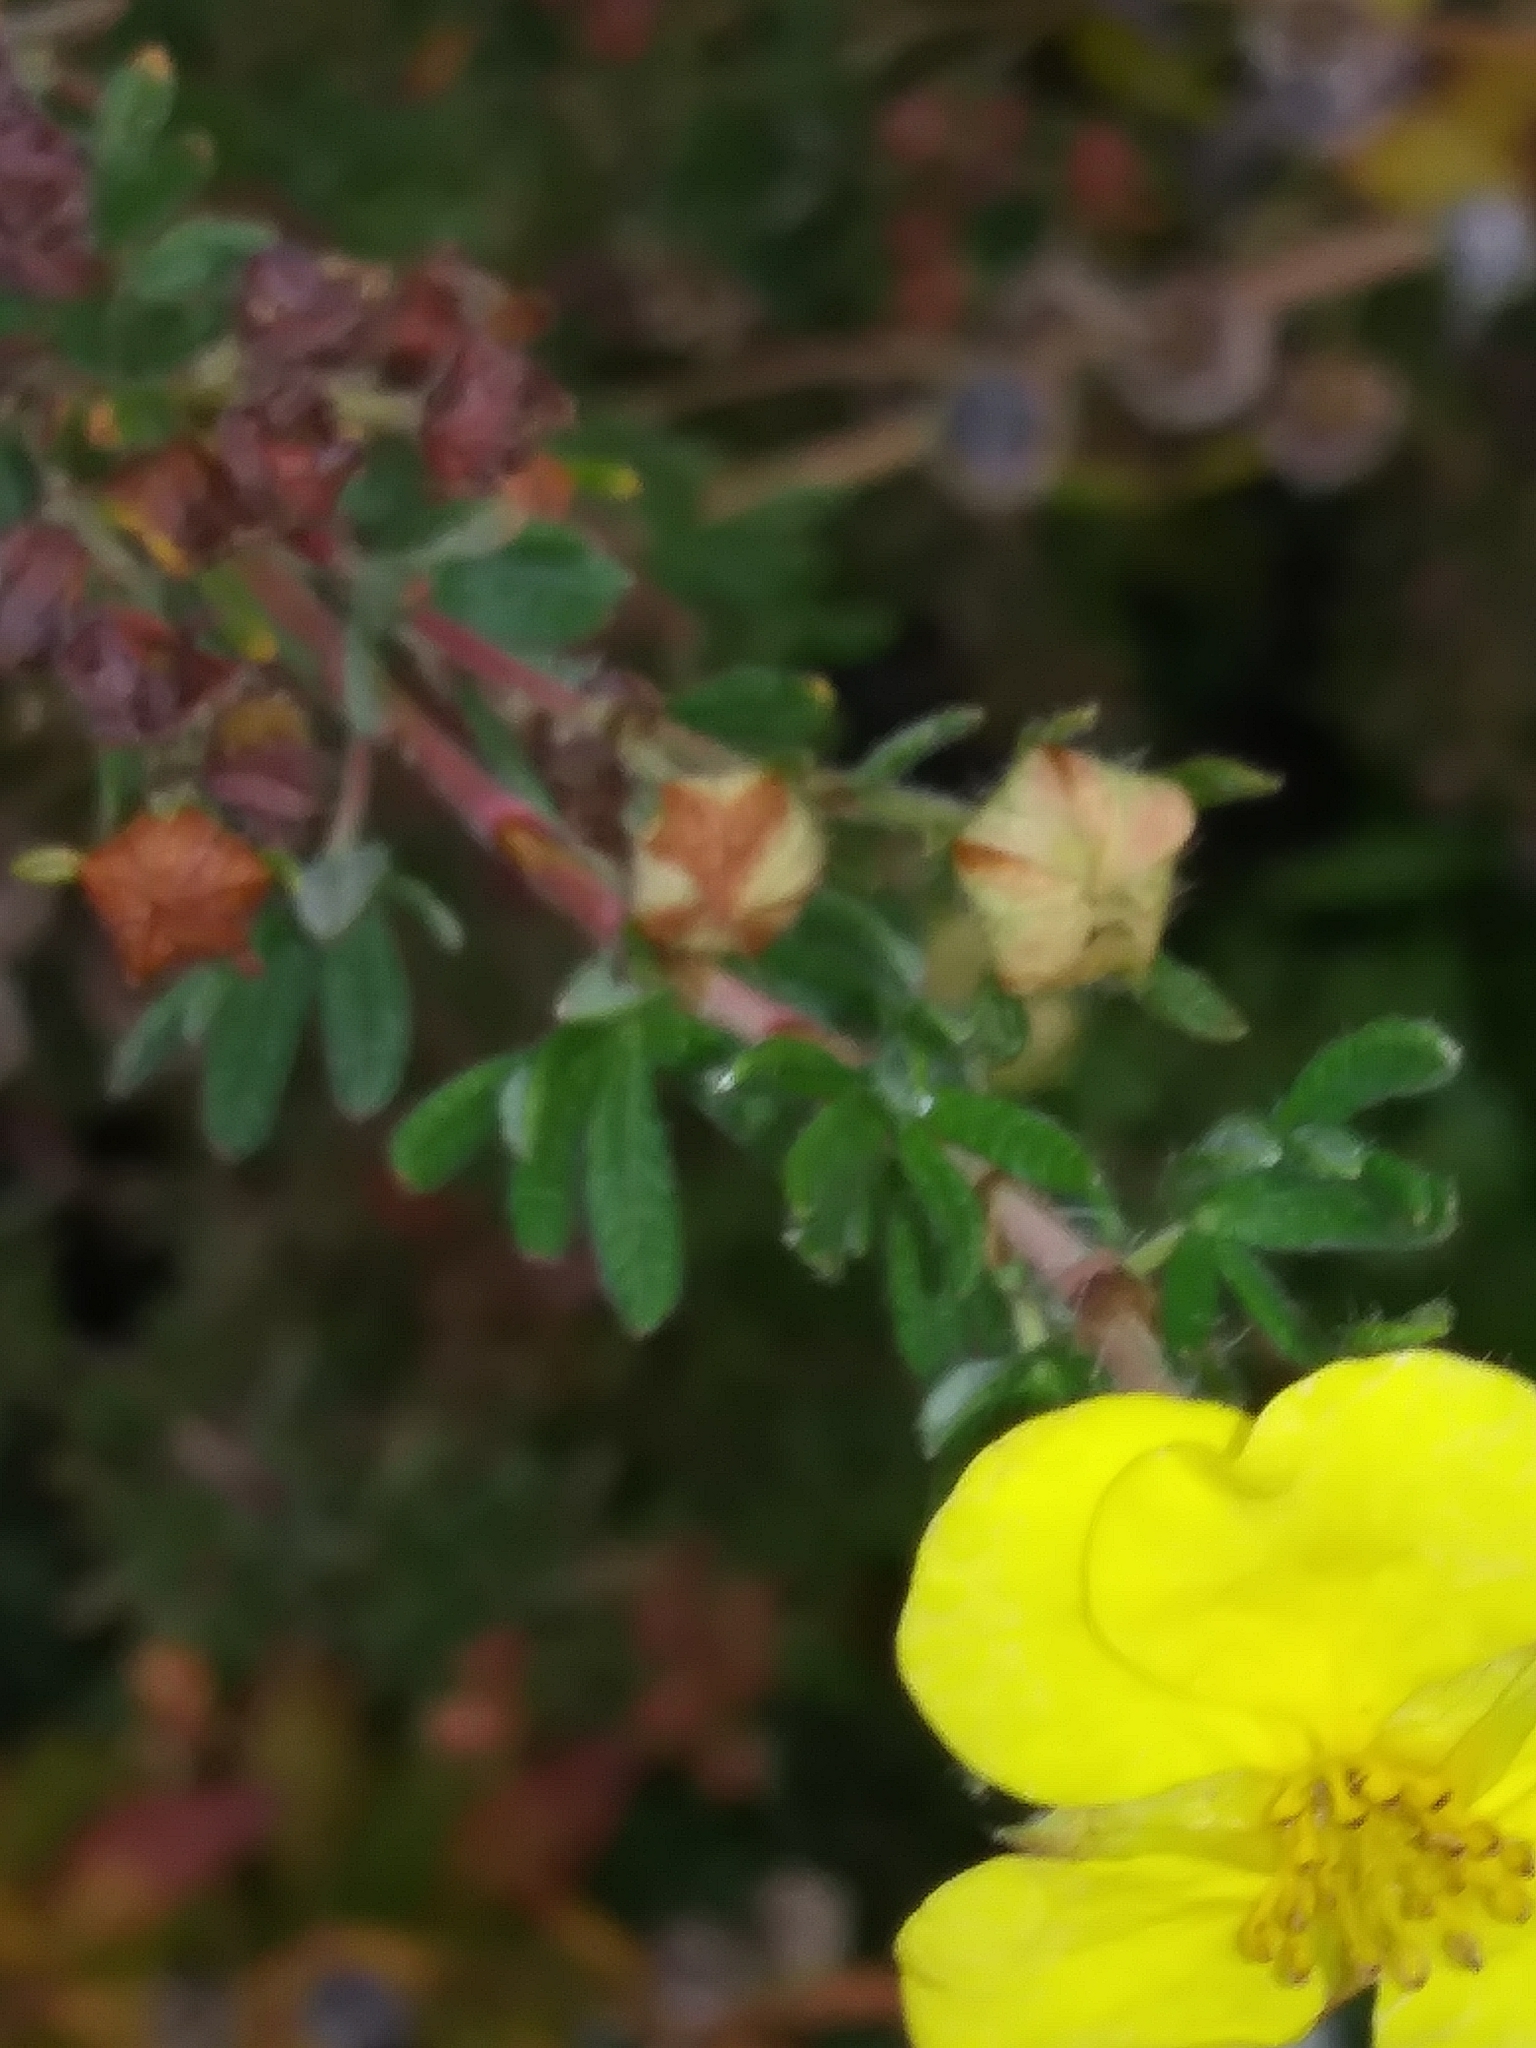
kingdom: Plantae
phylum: Tracheophyta
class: Magnoliopsida
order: Rosales
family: Rosaceae
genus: Dasiphora
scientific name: Dasiphora fruticosa
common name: Shrubby cinquefoil
